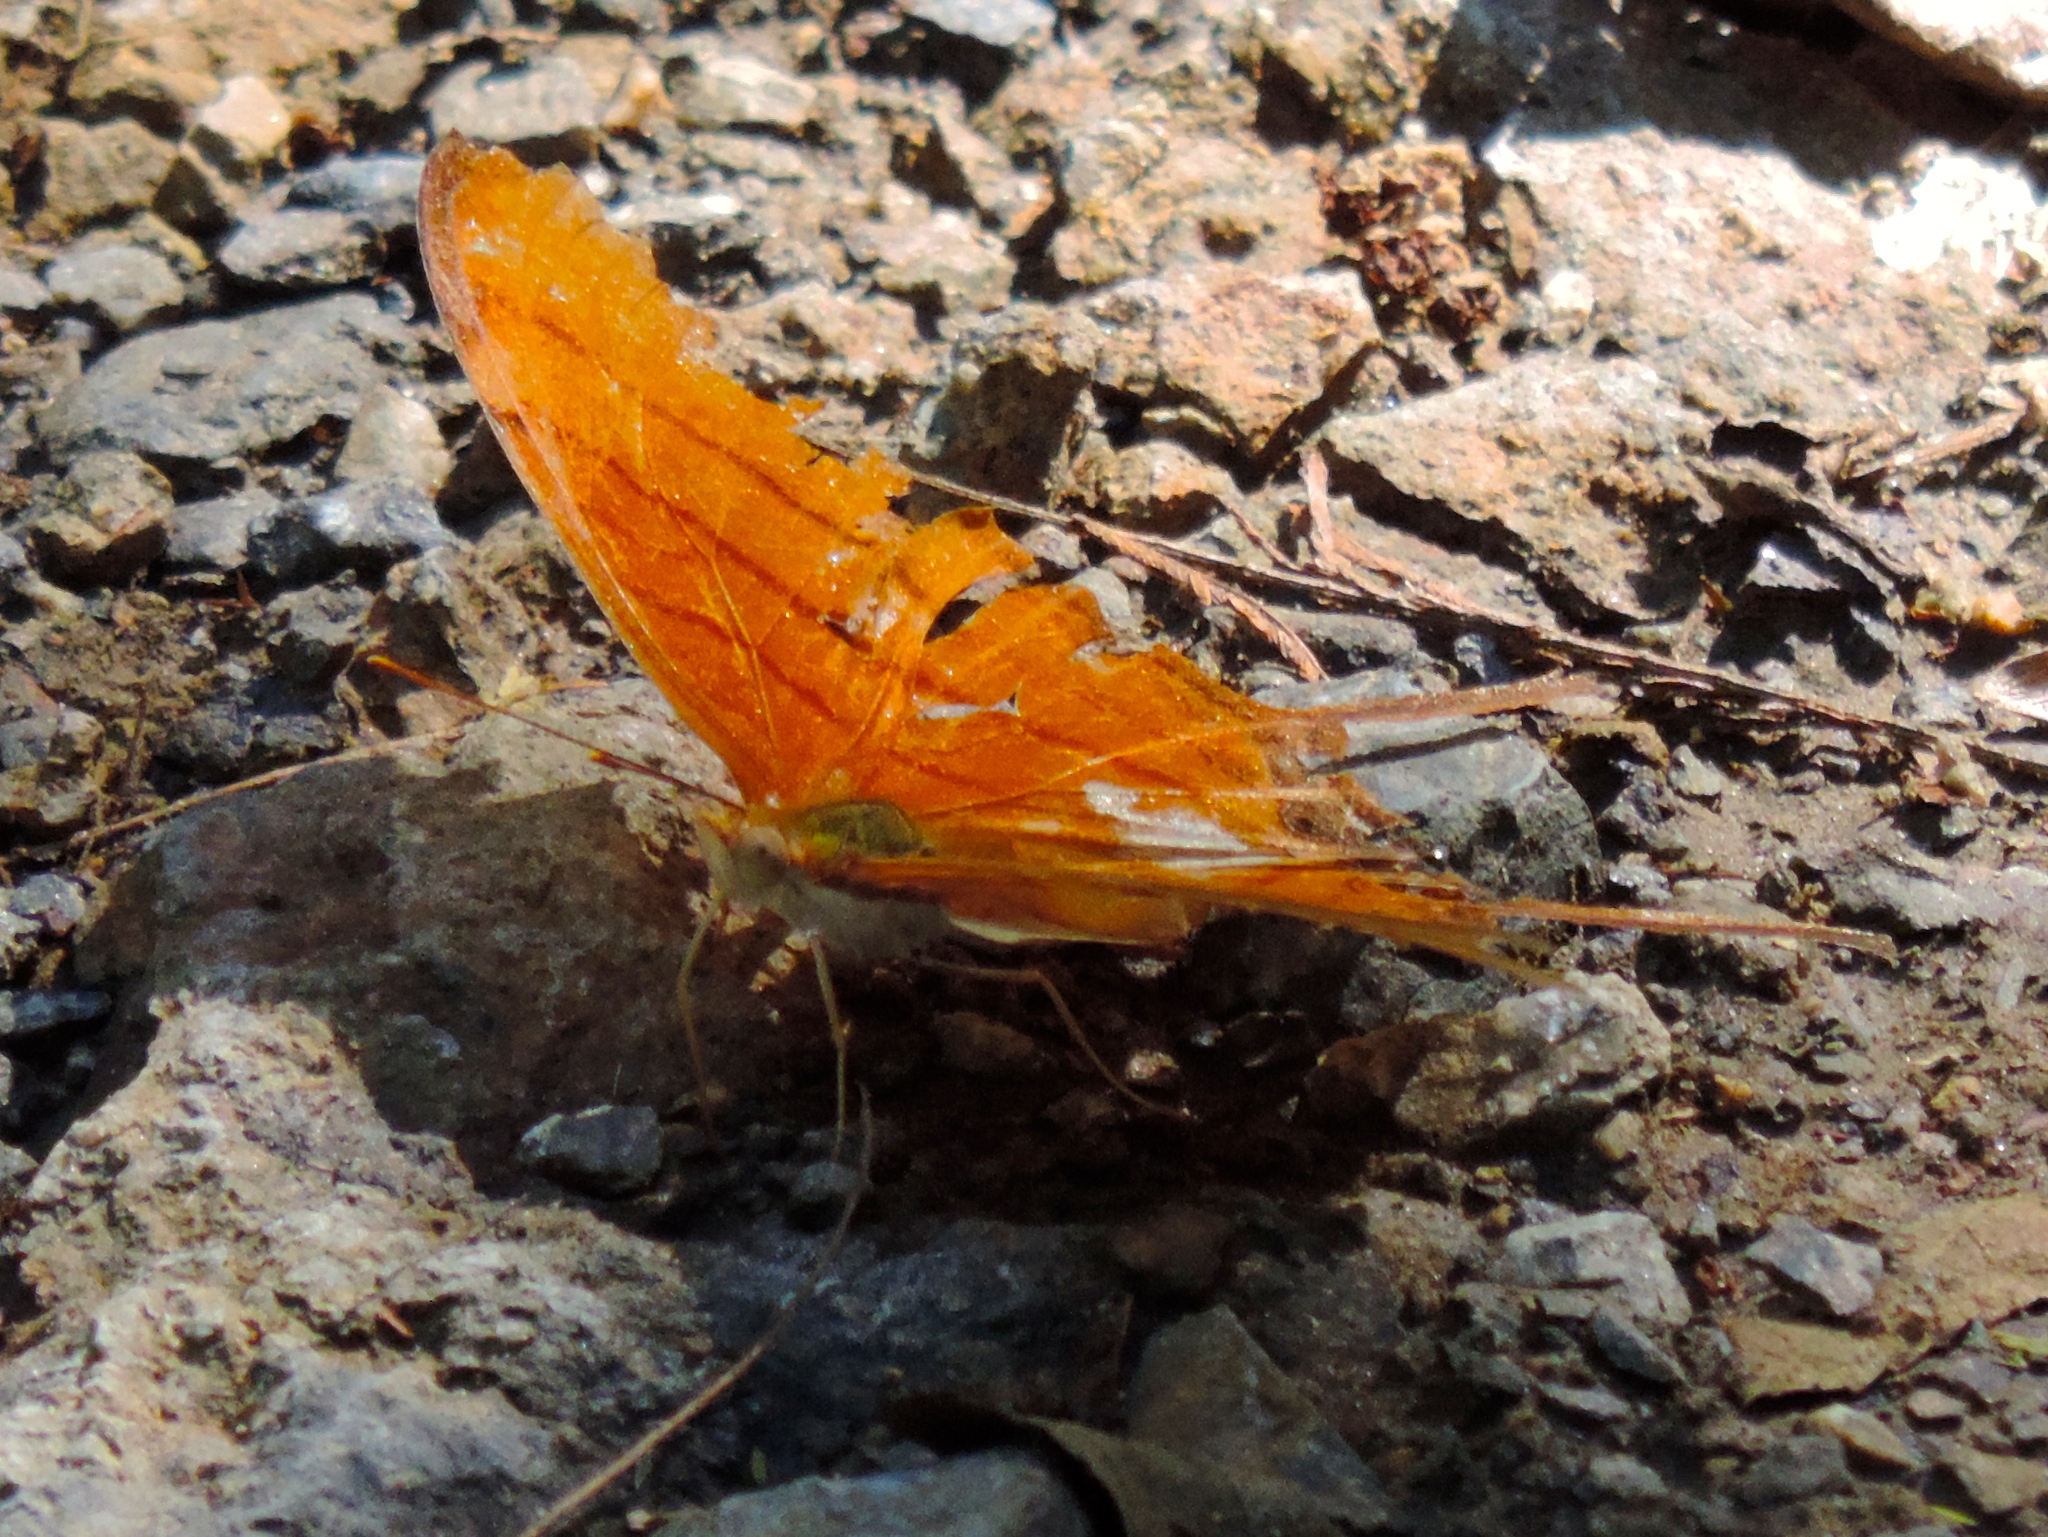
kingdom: Animalia
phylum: Arthropoda
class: Insecta
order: Lepidoptera
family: Nymphalidae
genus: Marpesia
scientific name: Marpesia petreus
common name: Red dagger wing
